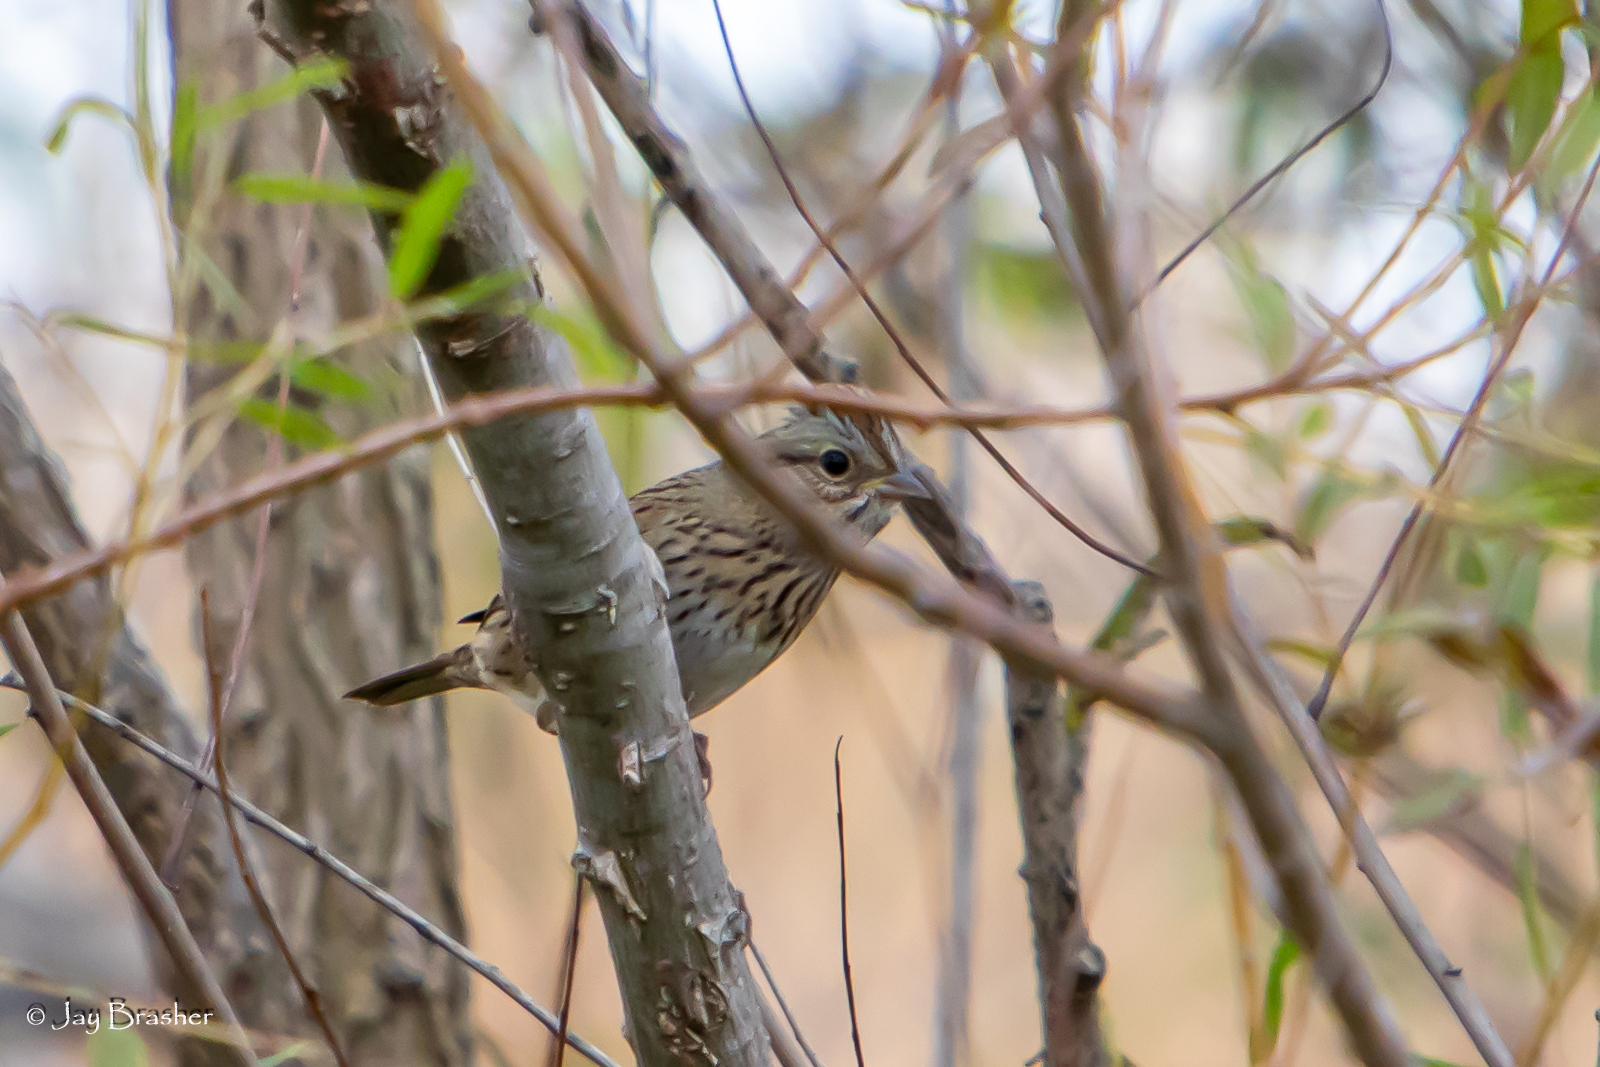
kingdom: Animalia
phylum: Chordata
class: Aves
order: Passeriformes
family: Passerellidae
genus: Melospiza
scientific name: Melospiza lincolnii
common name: Lincoln's sparrow
